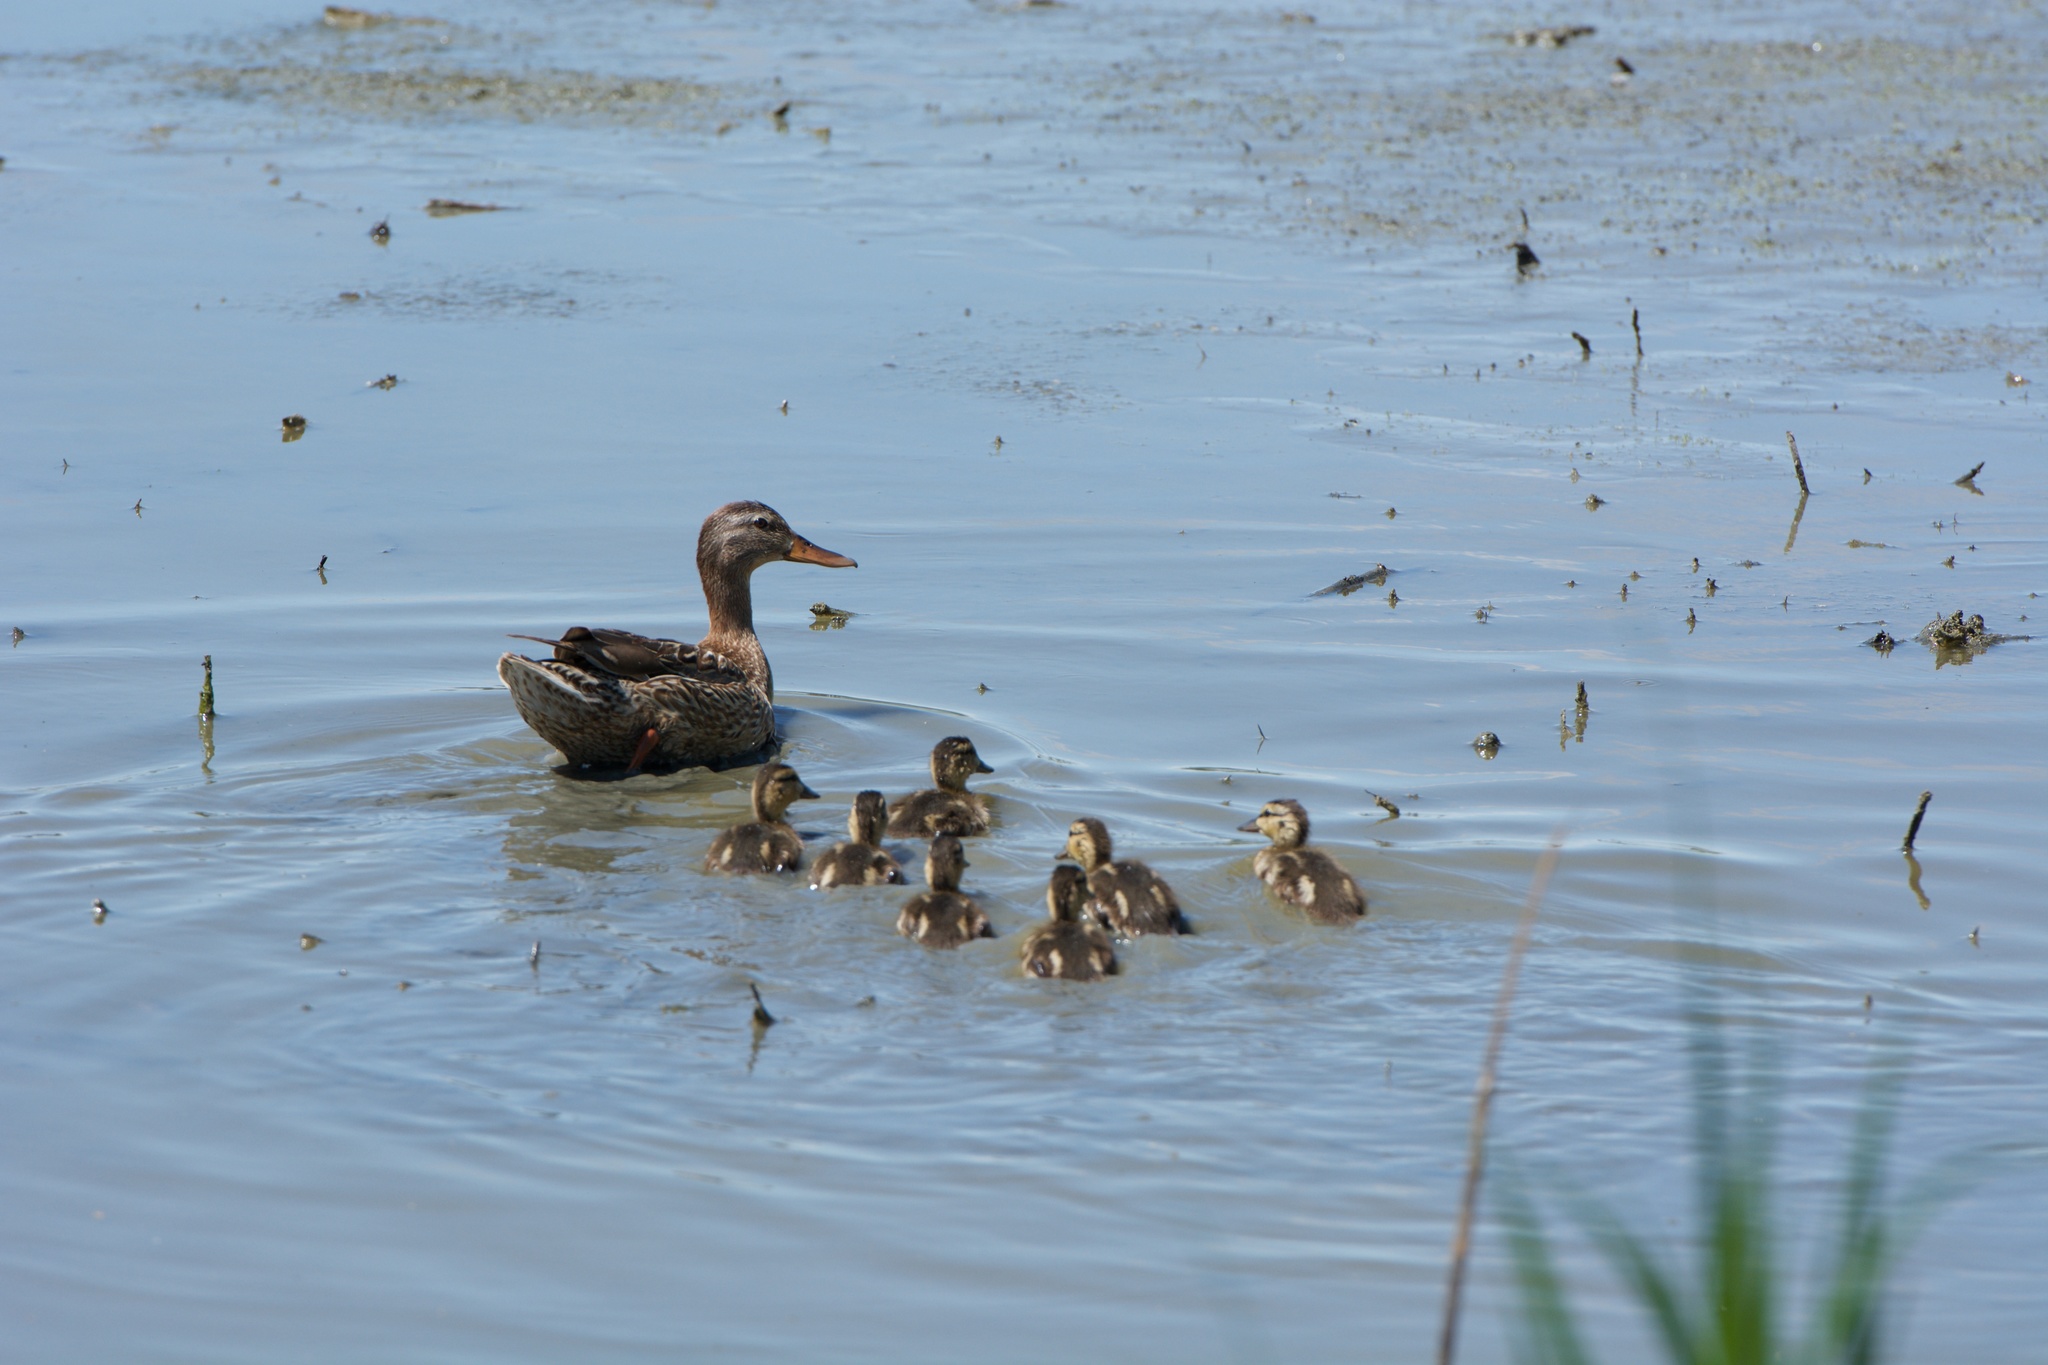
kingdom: Animalia
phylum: Chordata
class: Aves
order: Anseriformes
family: Anatidae
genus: Anas
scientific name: Anas platyrhynchos
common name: Mallard
